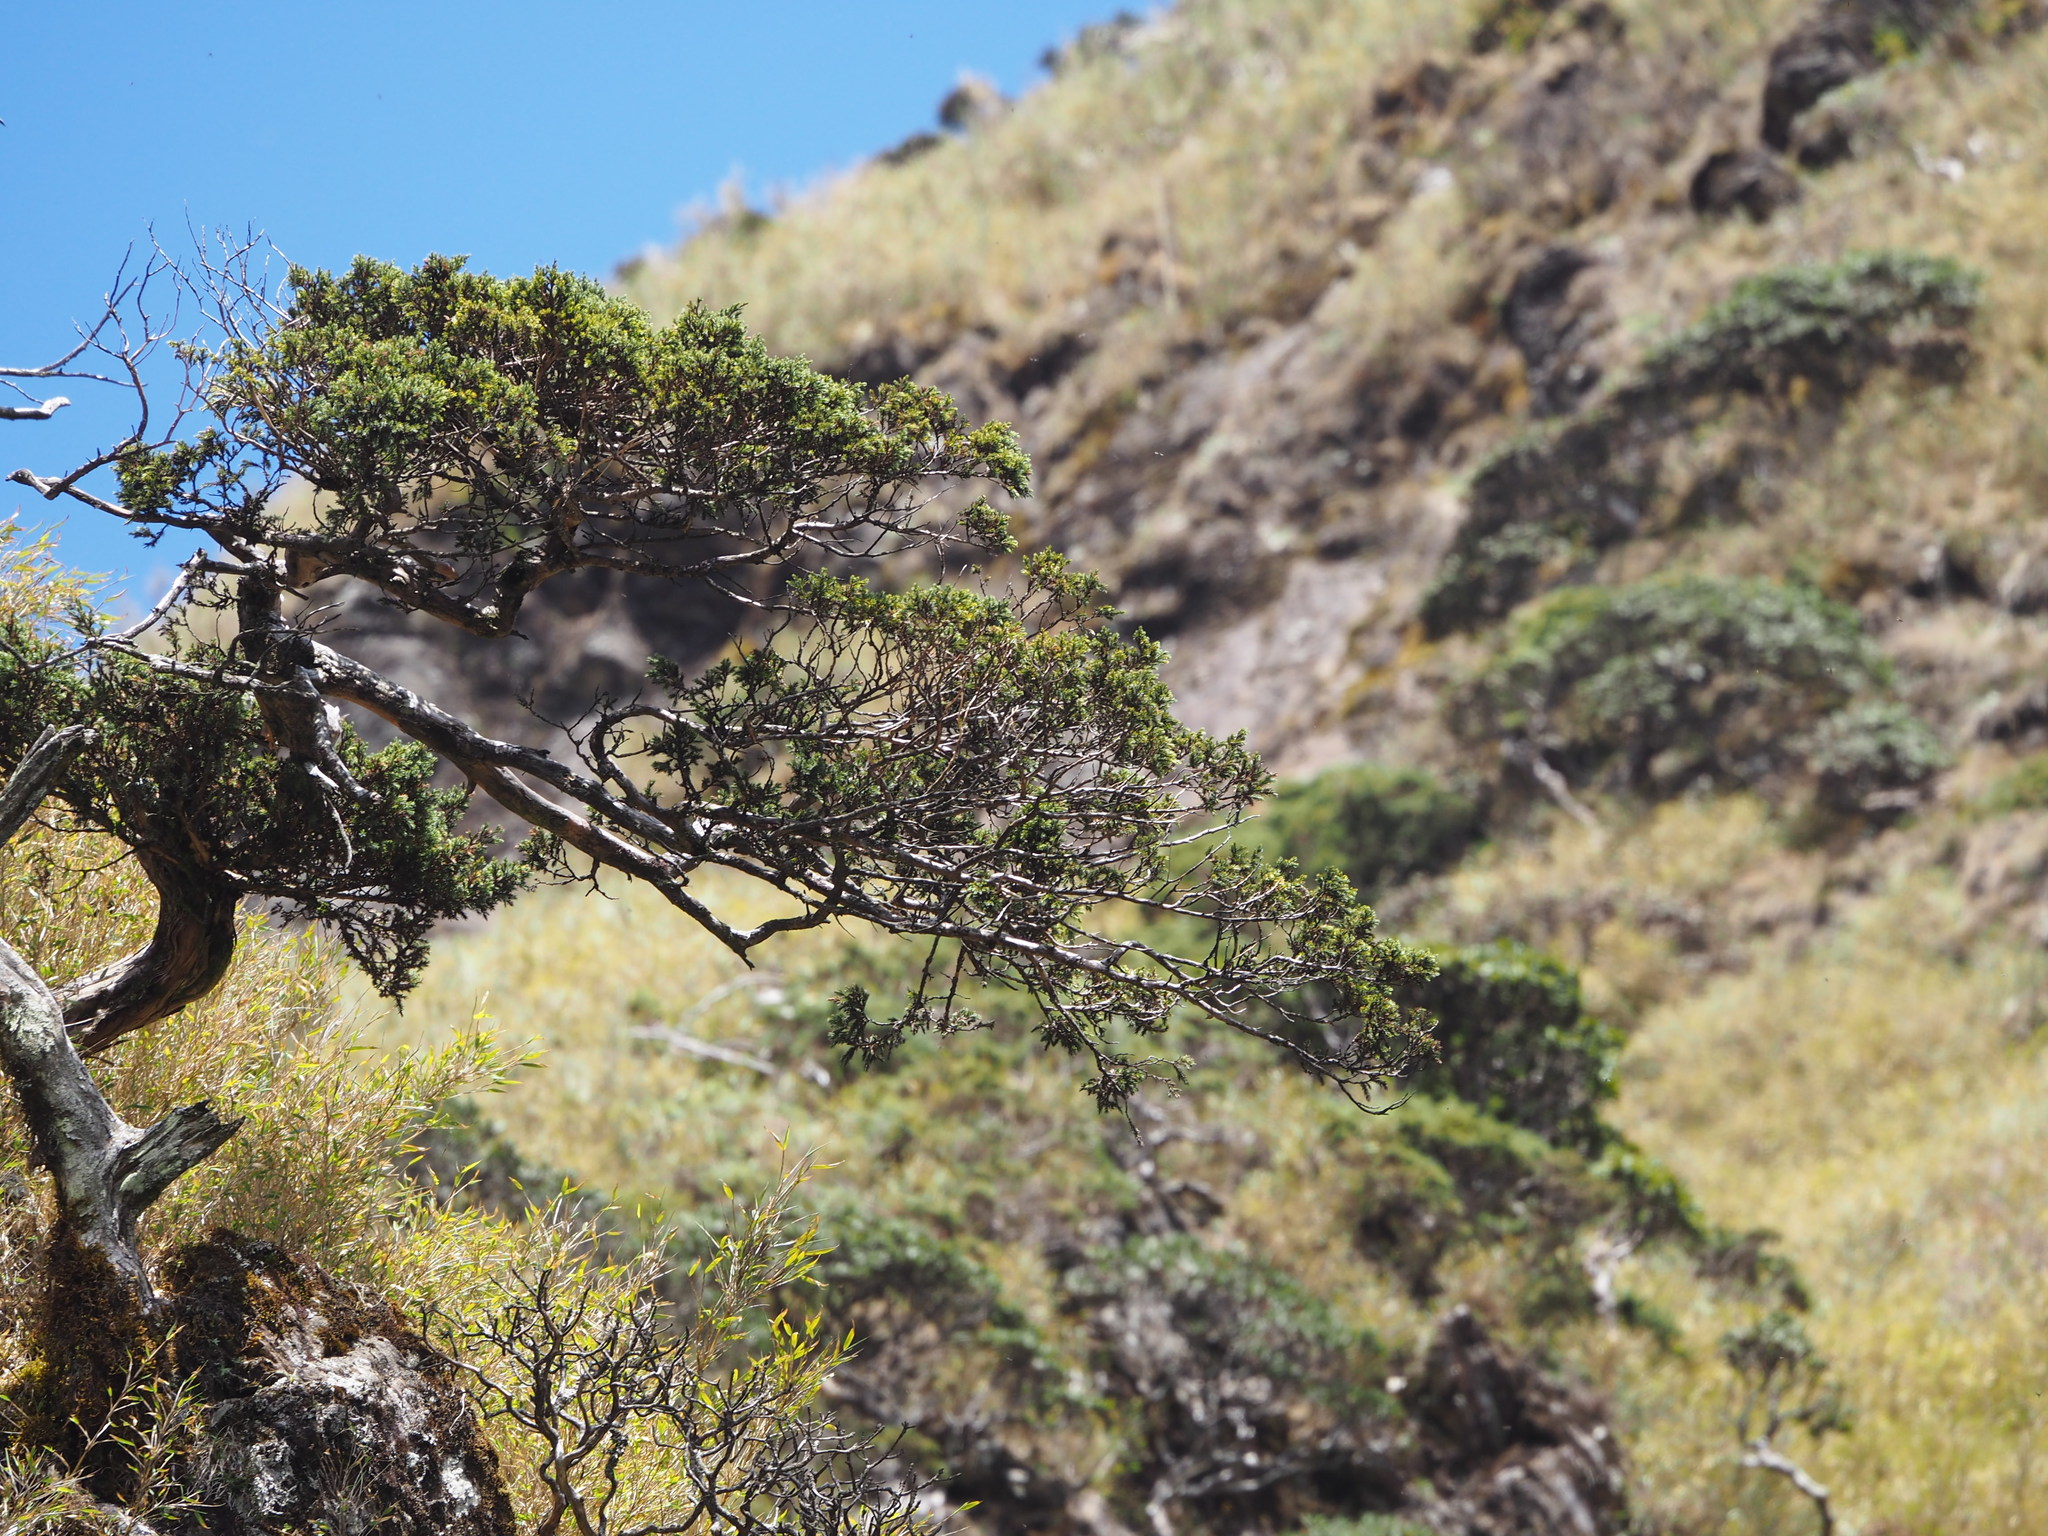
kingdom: Plantae
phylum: Tracheophyta
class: Pinopsida
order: Pinales
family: Cupressaceae
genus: Juniperus
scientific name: Juniperus squamata
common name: Flaky juniper
